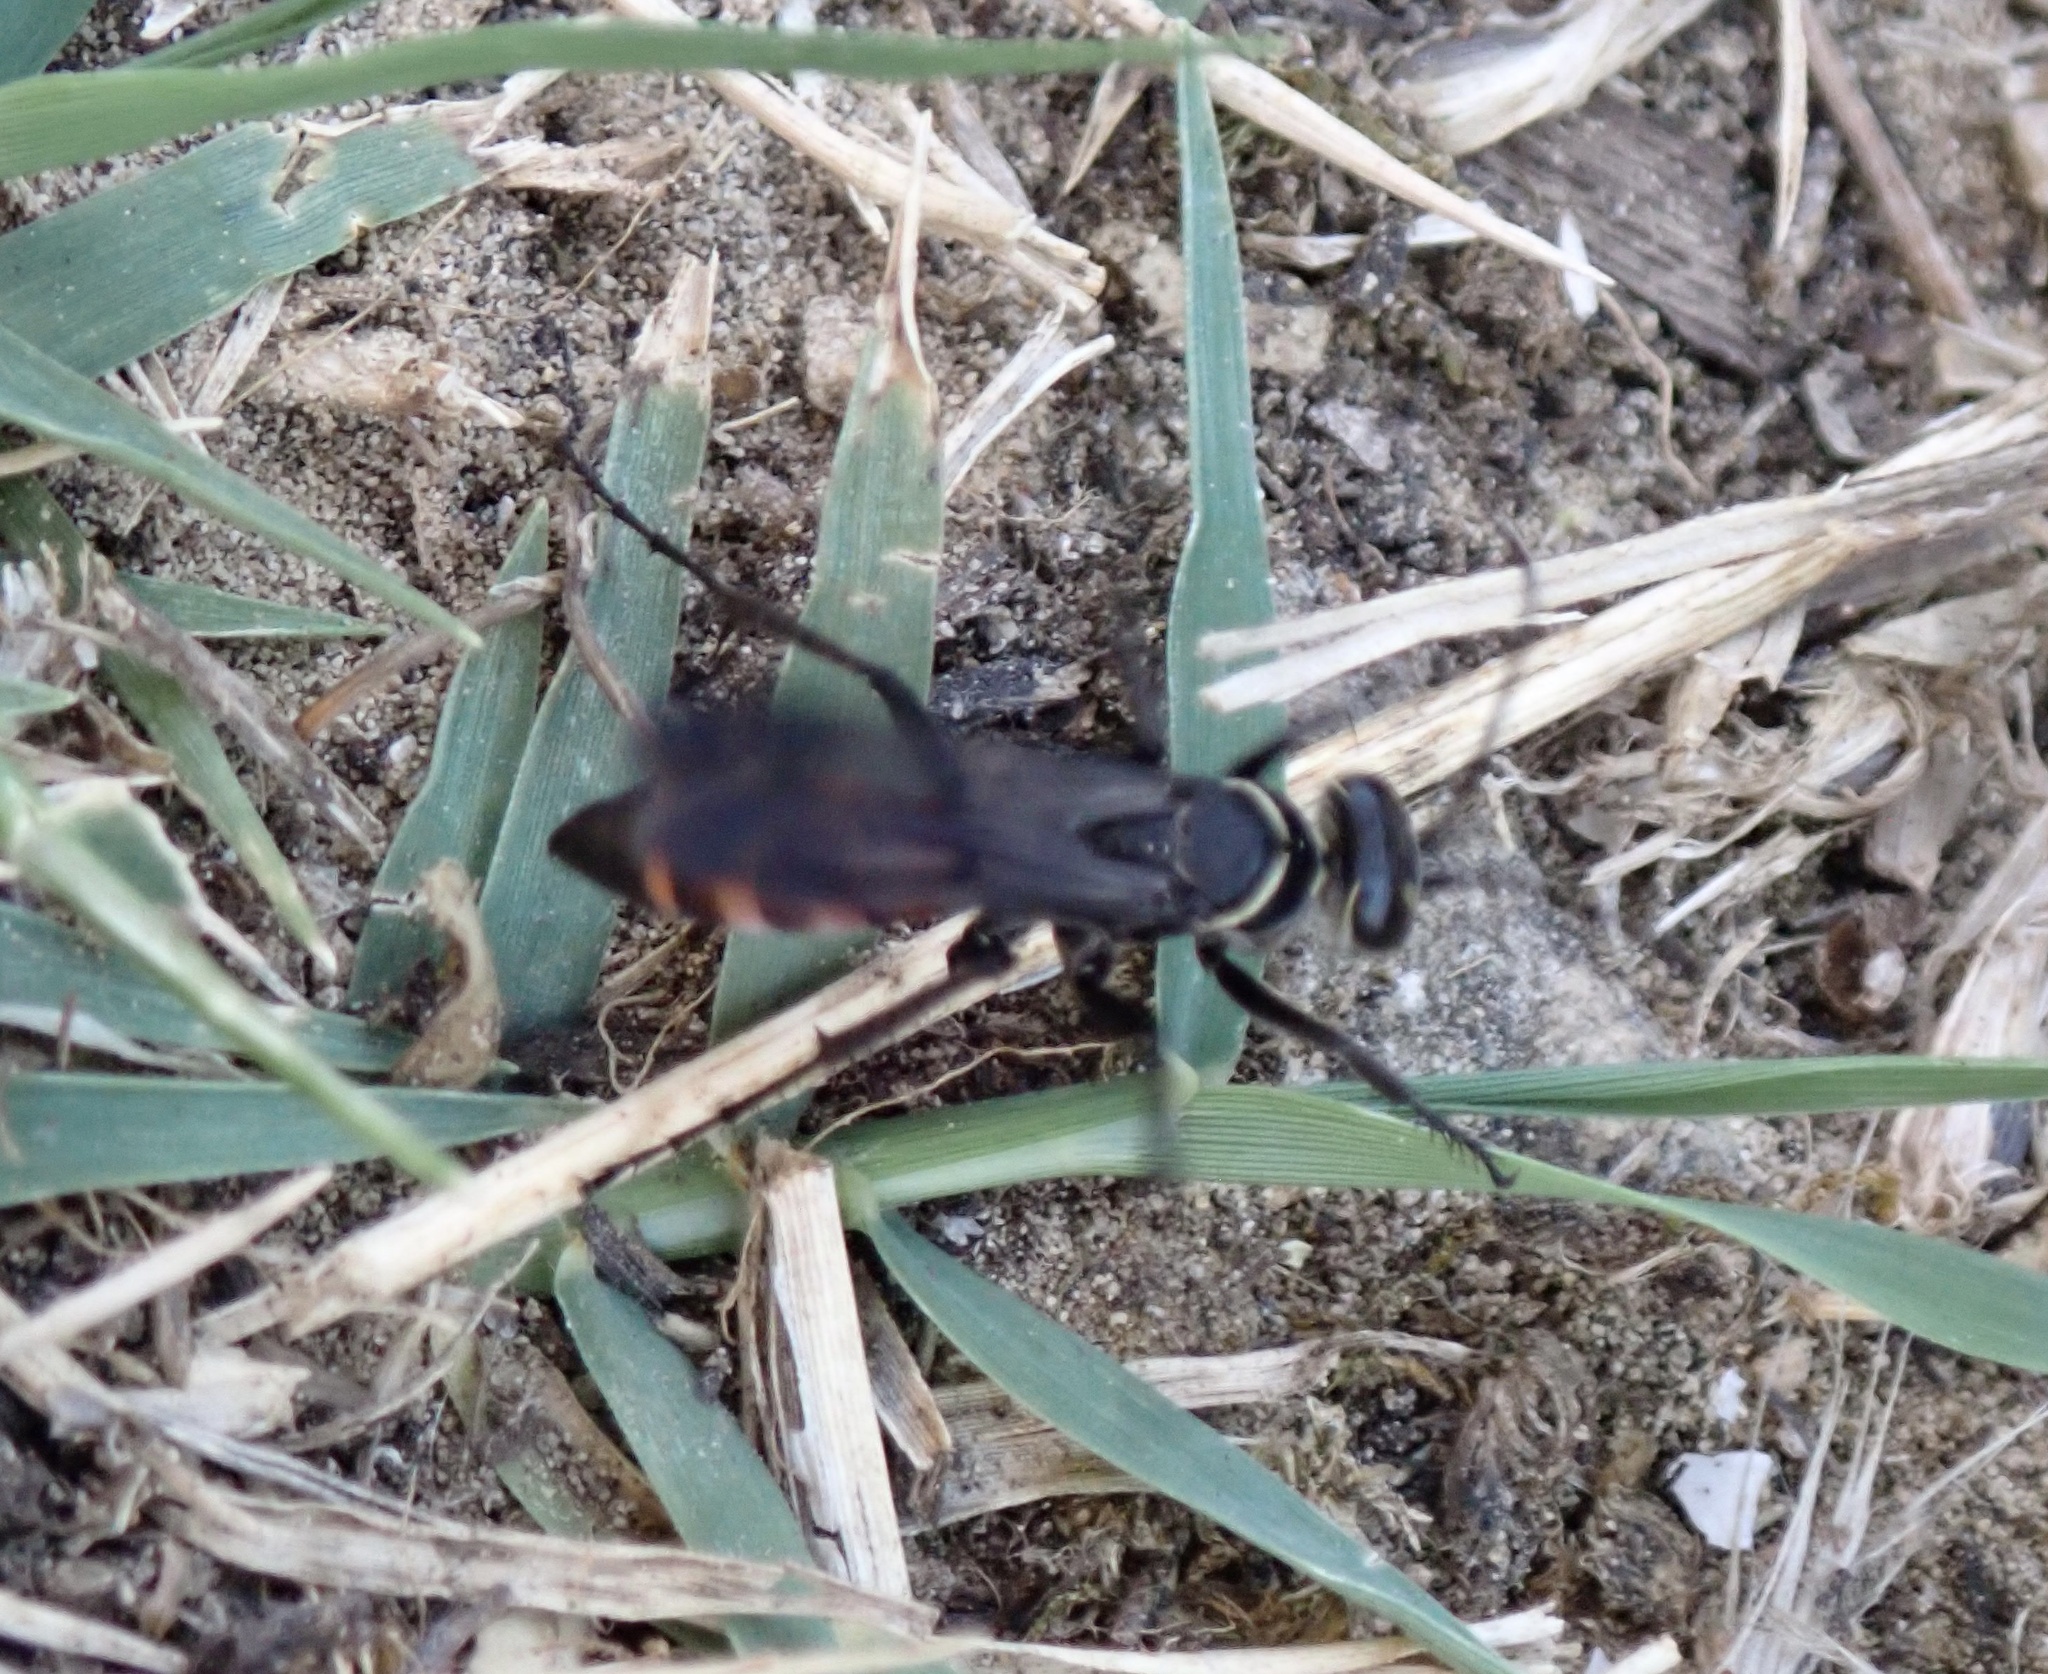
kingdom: Animalia
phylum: Arthropoda
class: Insecta
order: Hymenoptera
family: Pompilidae
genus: Anospilus
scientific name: Anospilus orbitalis
